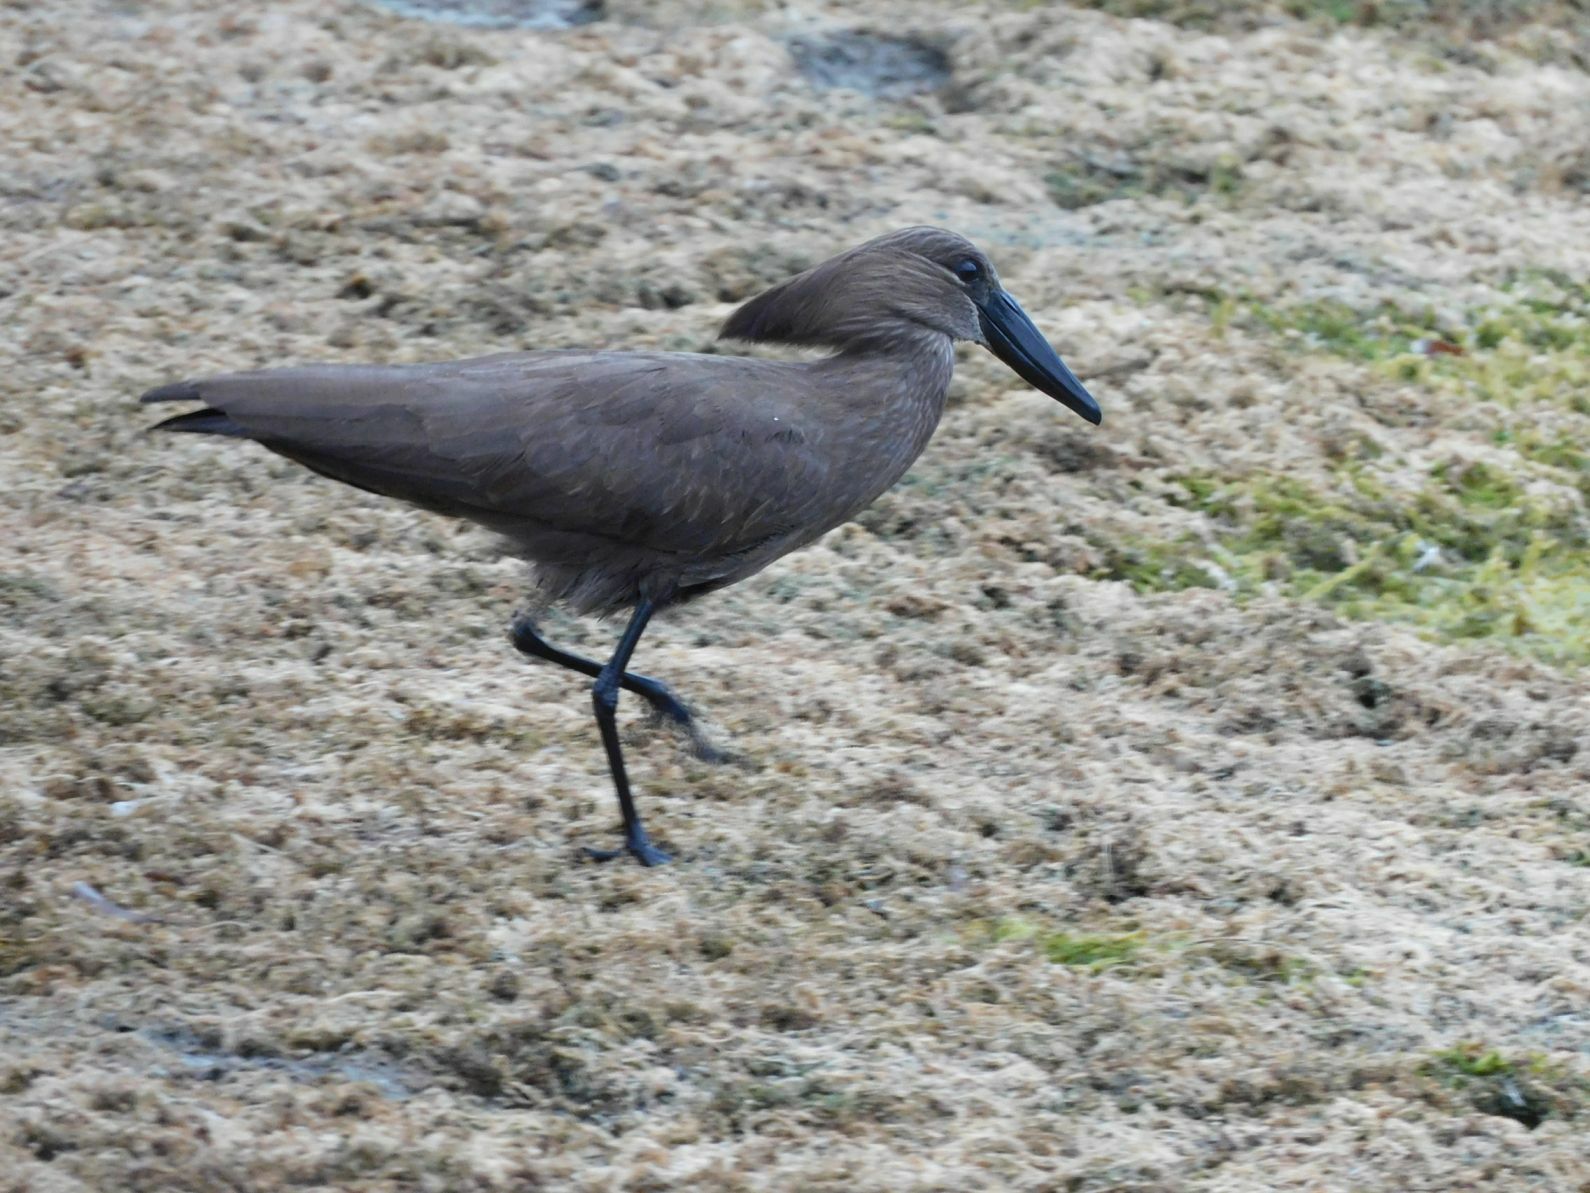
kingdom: Animalia
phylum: Chordata
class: Aves
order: Pelecaniformes
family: Scopidae
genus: Scopus
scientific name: Scopus umbretta
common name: Hamerkop
